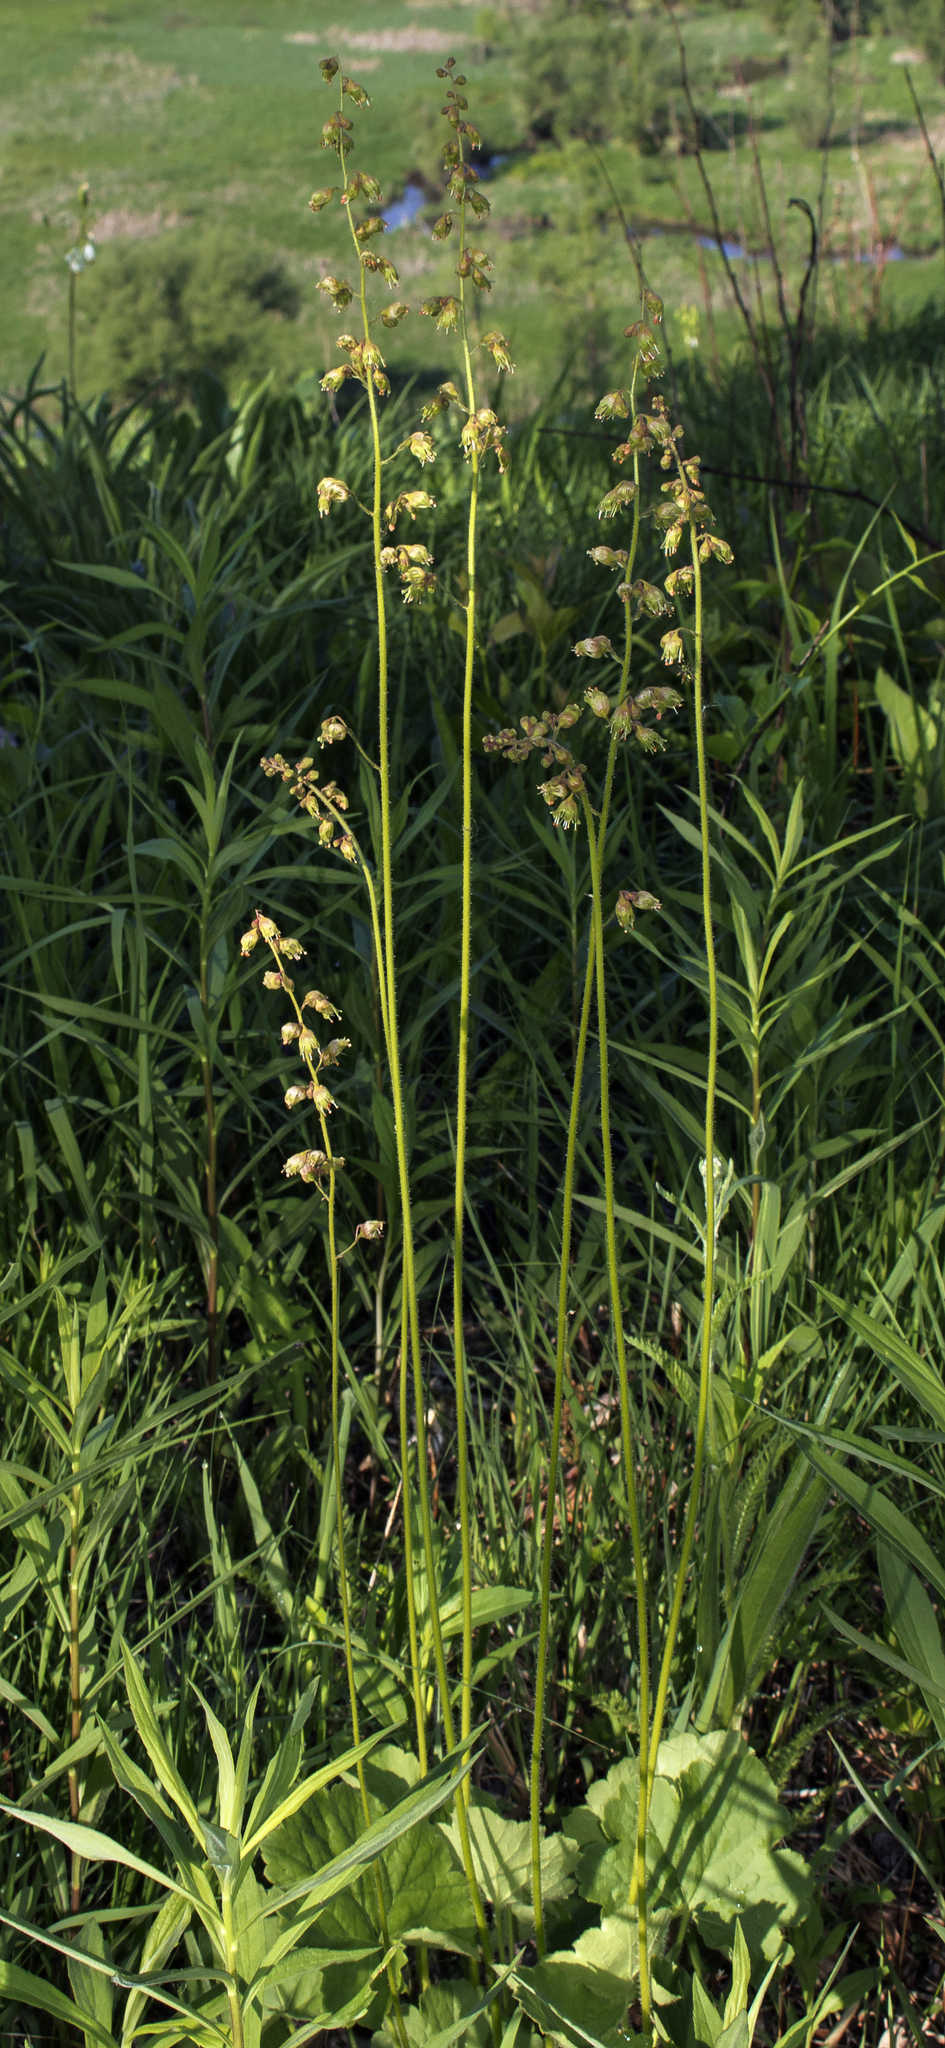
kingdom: Plantae
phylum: Tracheophyta
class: Magnoliopsida
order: Saxifragales
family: Saxifragaceae
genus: Heuchera
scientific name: Heuchera richardsonii
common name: Richardson's alumroot
